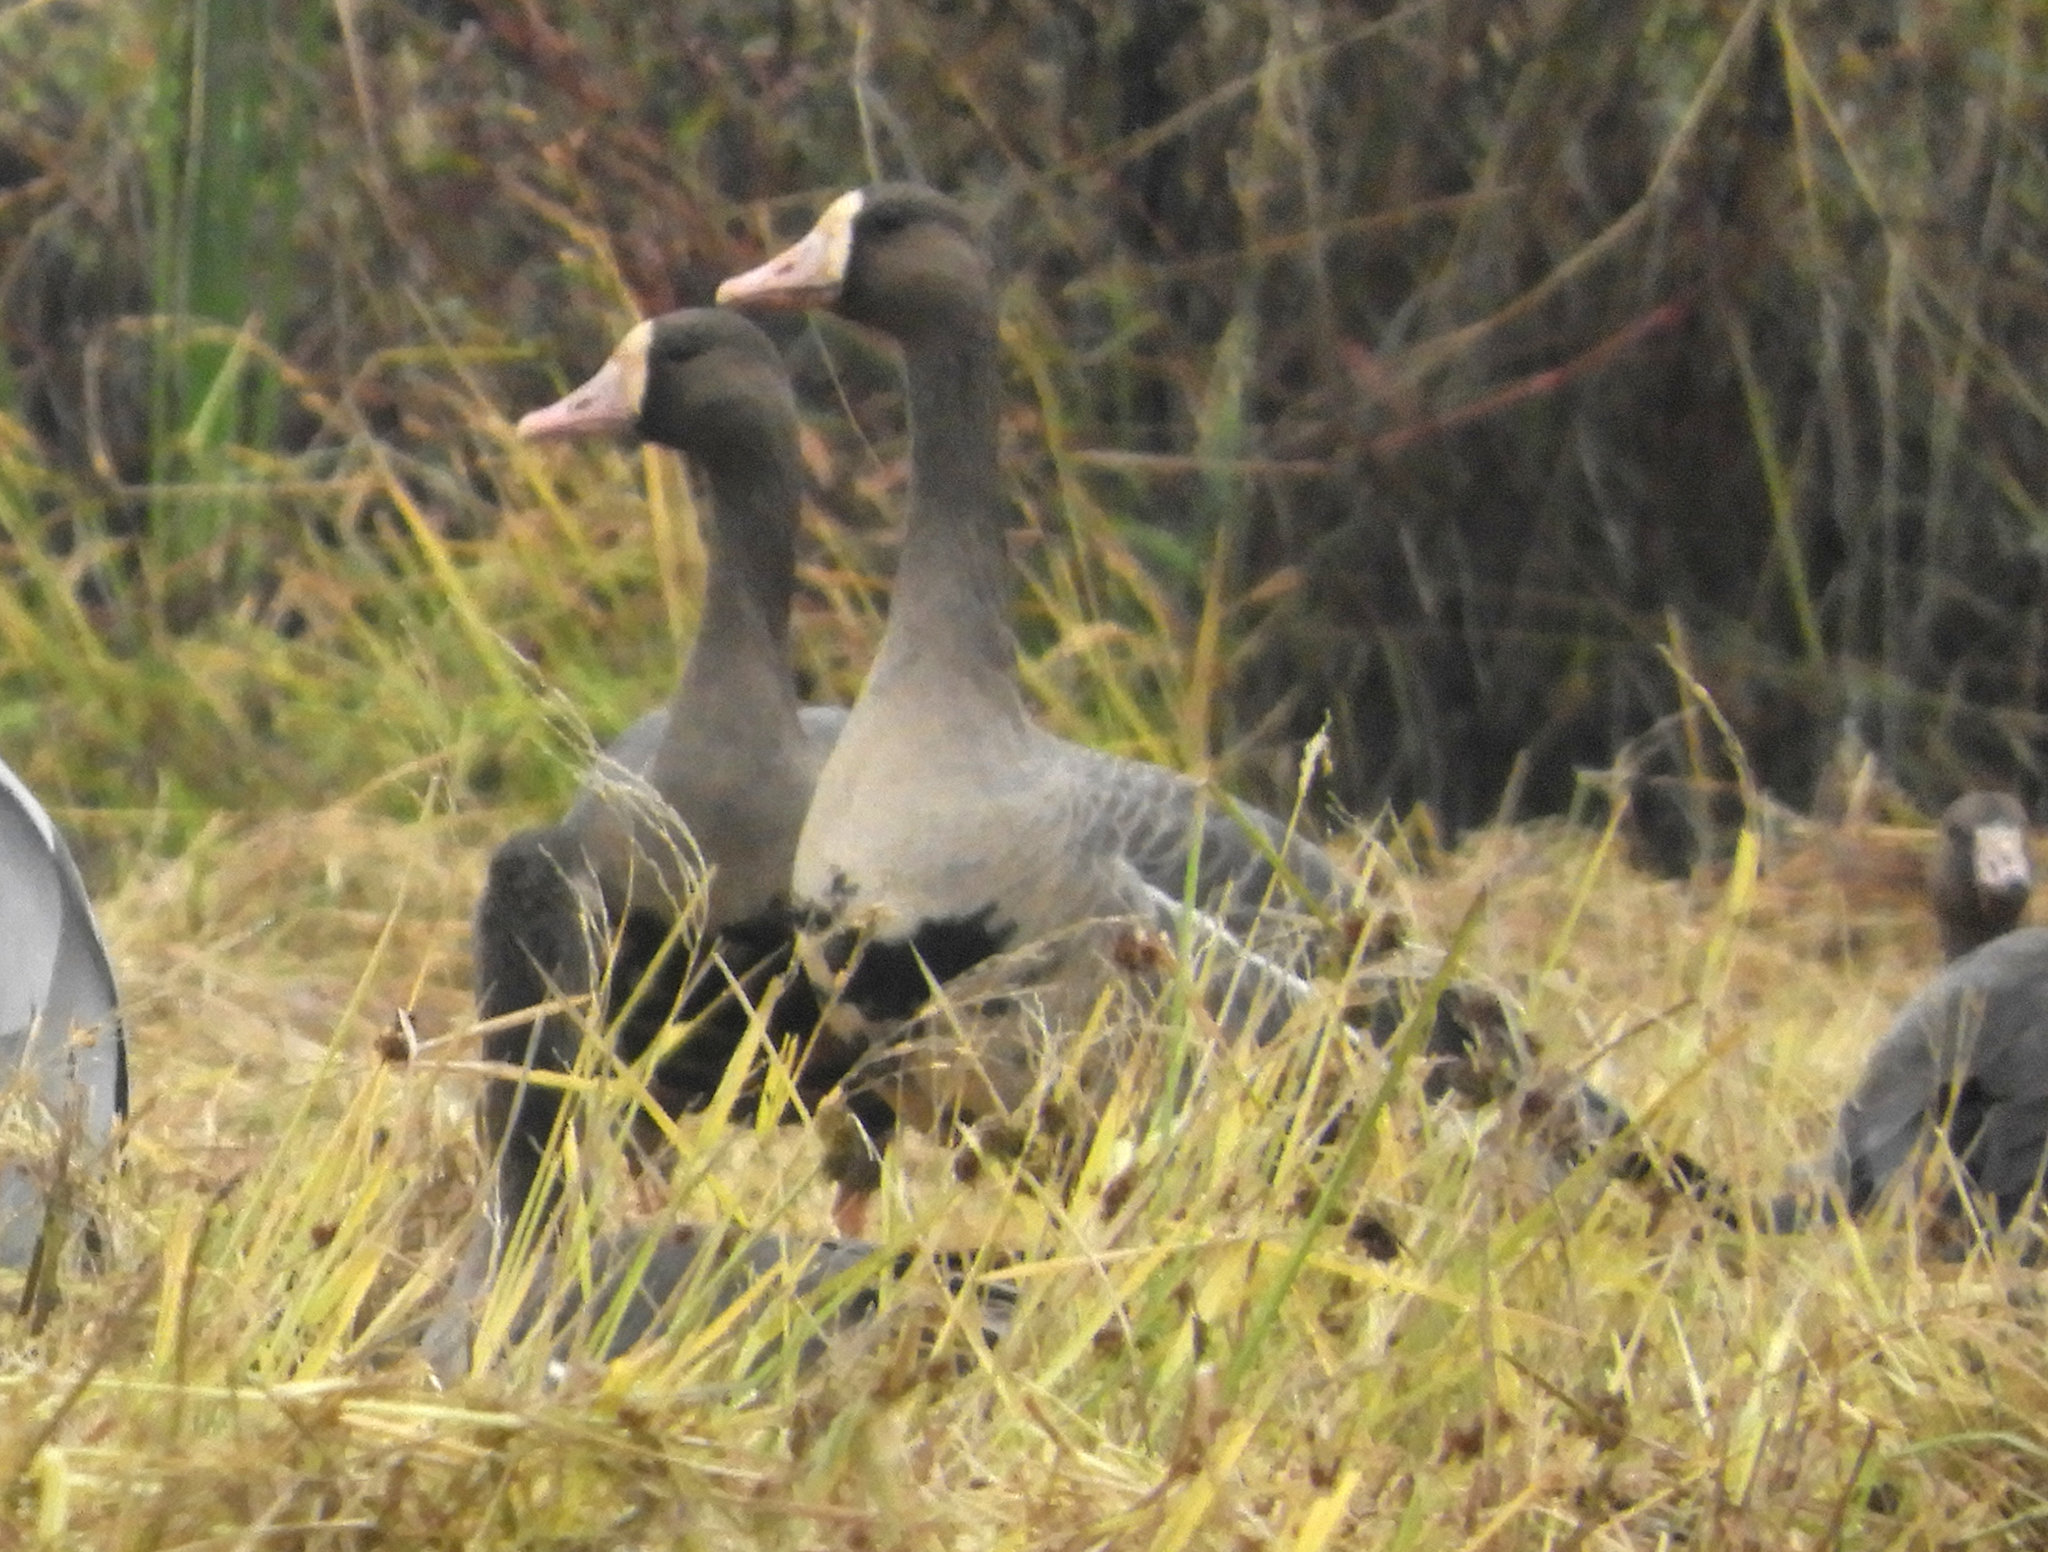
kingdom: Animalia
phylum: Chordata
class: Aves
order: Anseriformes
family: Anatidae
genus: Anser
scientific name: Anser albifrons
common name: Greater white-fronted goose
